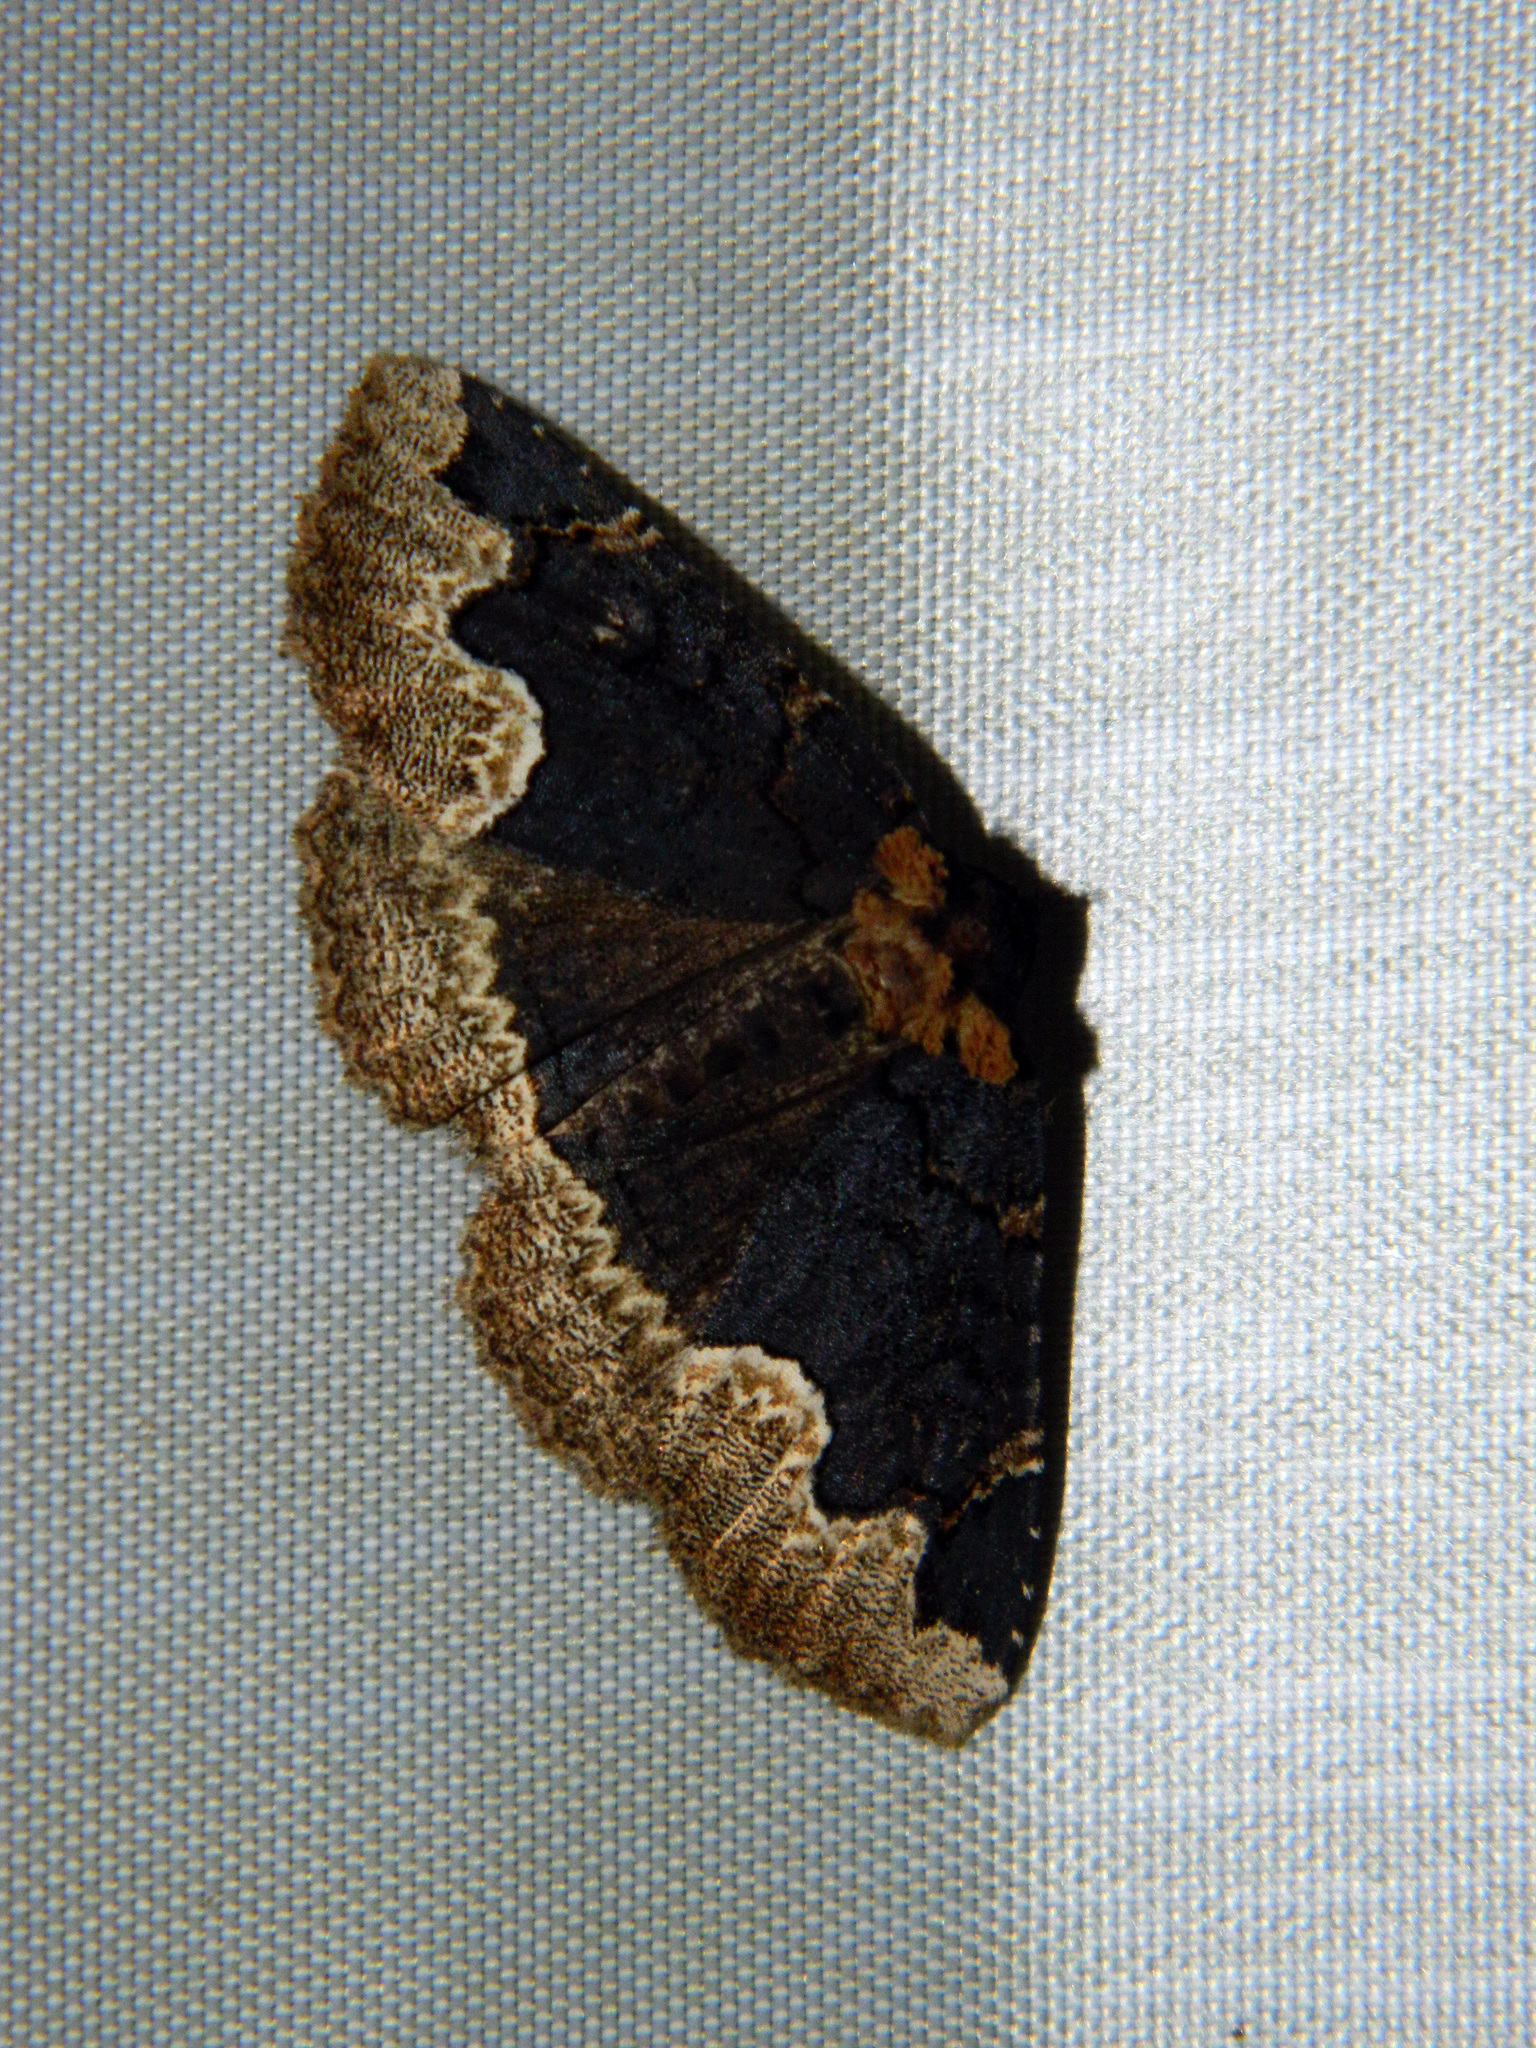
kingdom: Animalia
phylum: Arthropoda
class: Insecta
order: Lepidoptera
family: Erebidae
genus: Zale
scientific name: Zale horrida
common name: Horrid zale moth
